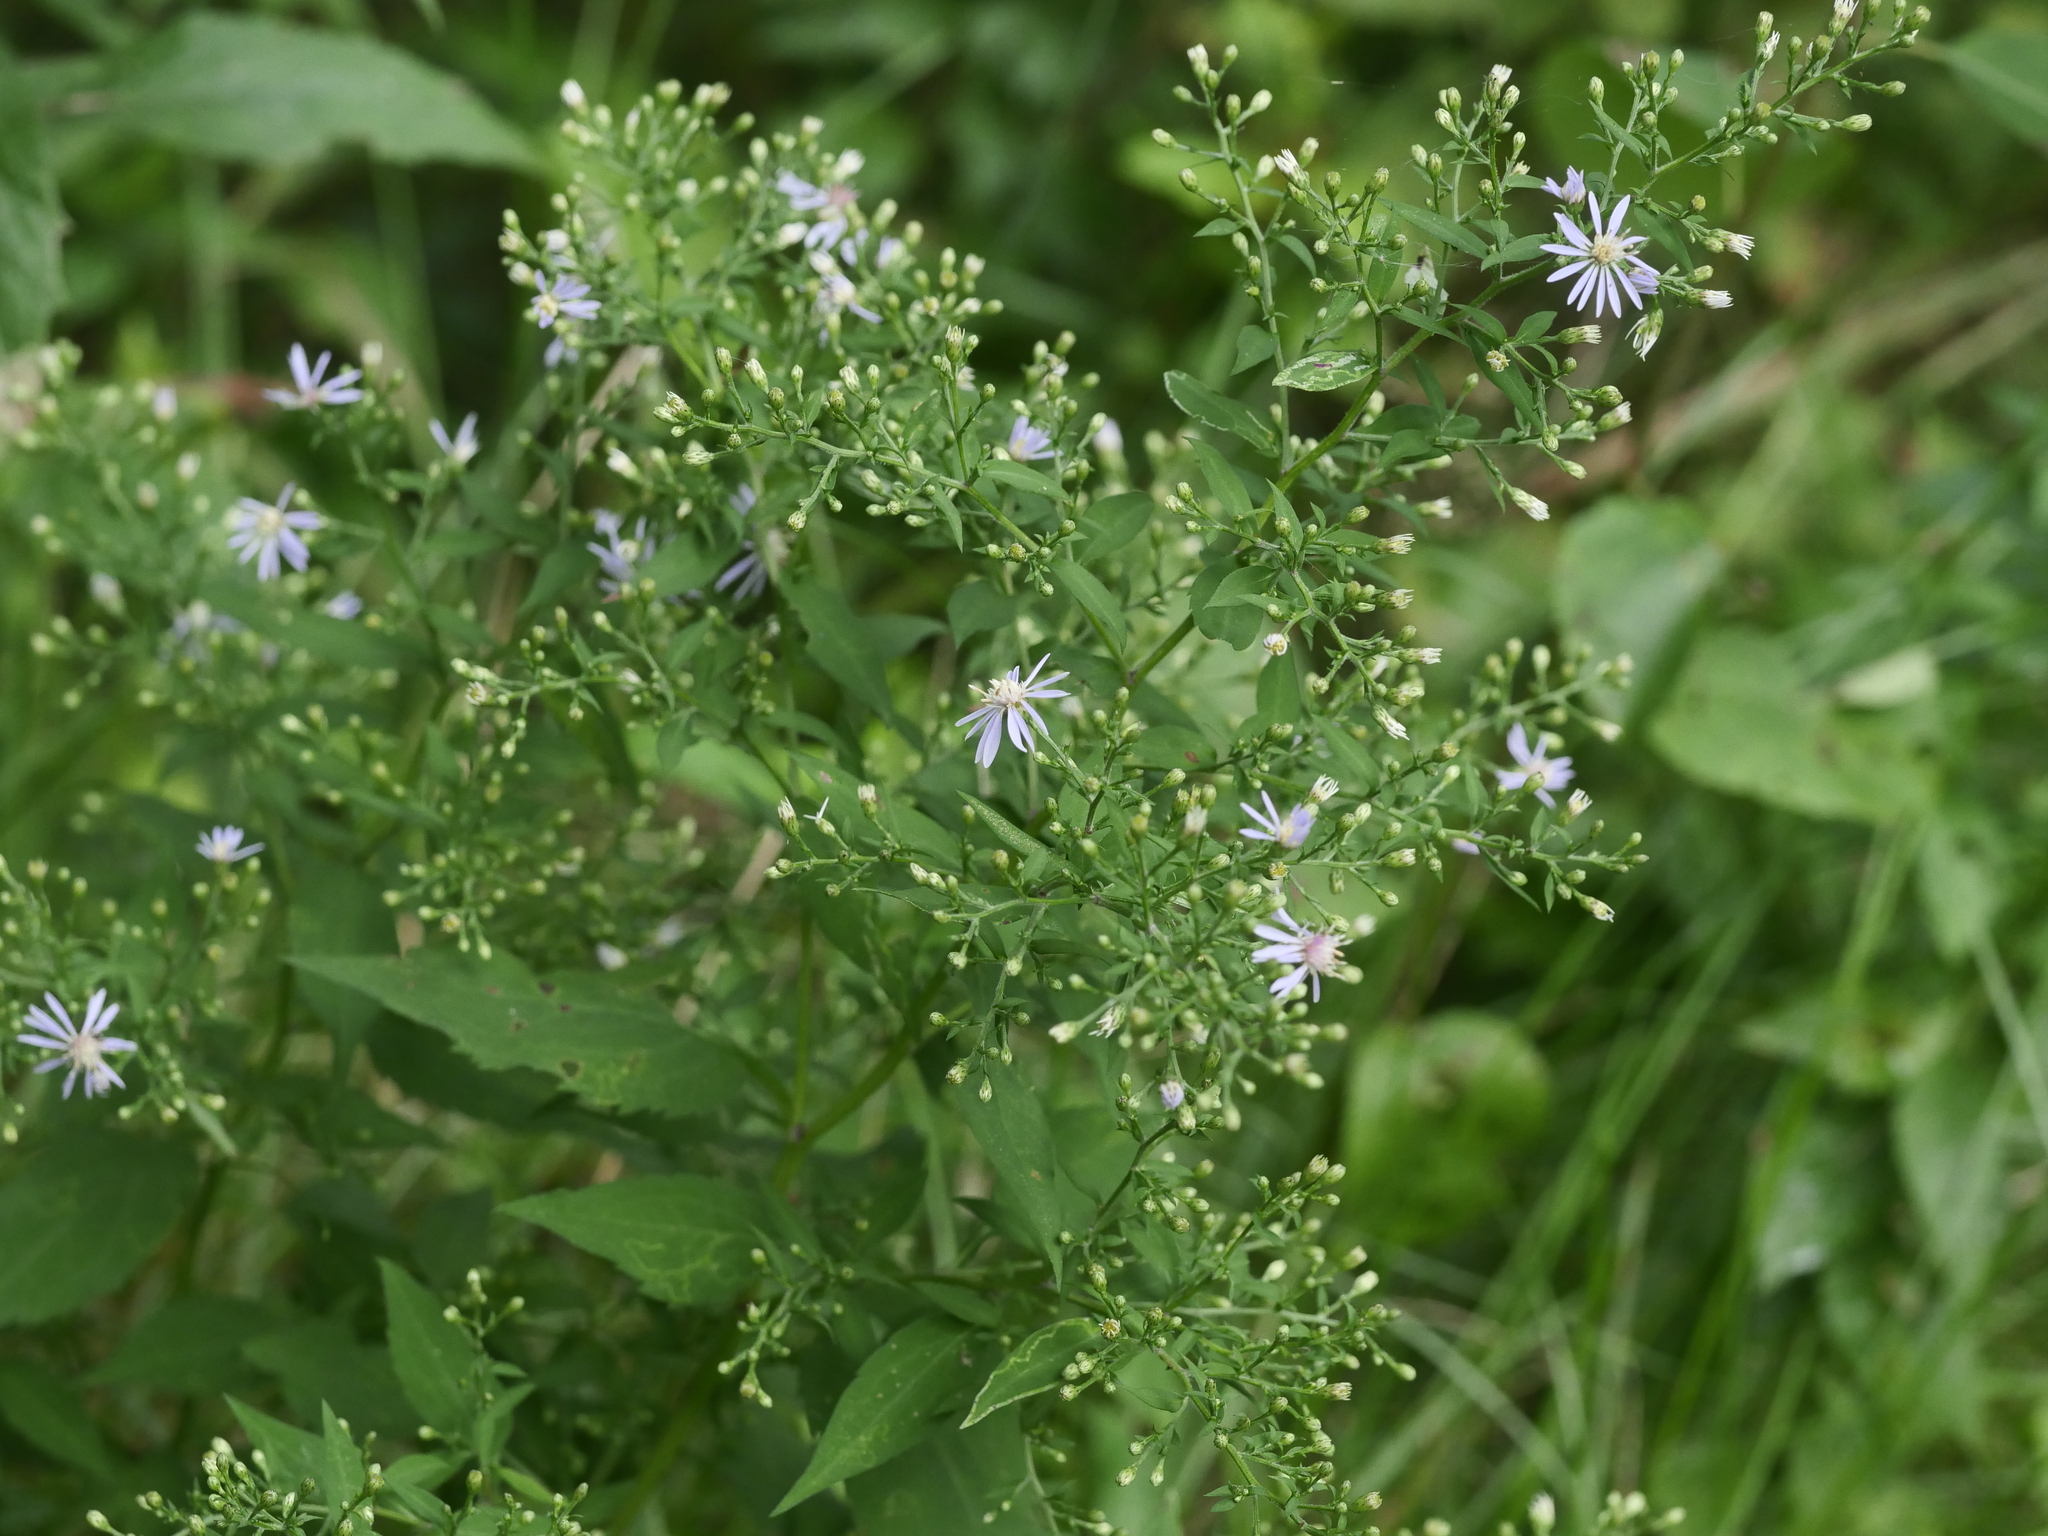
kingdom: Plantae
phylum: Tracheophyta
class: Magnoliopsida
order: Asterales
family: Asteraceae
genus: Symphyotrichum
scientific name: Symphyotrichum cordifolium
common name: Beeweed
